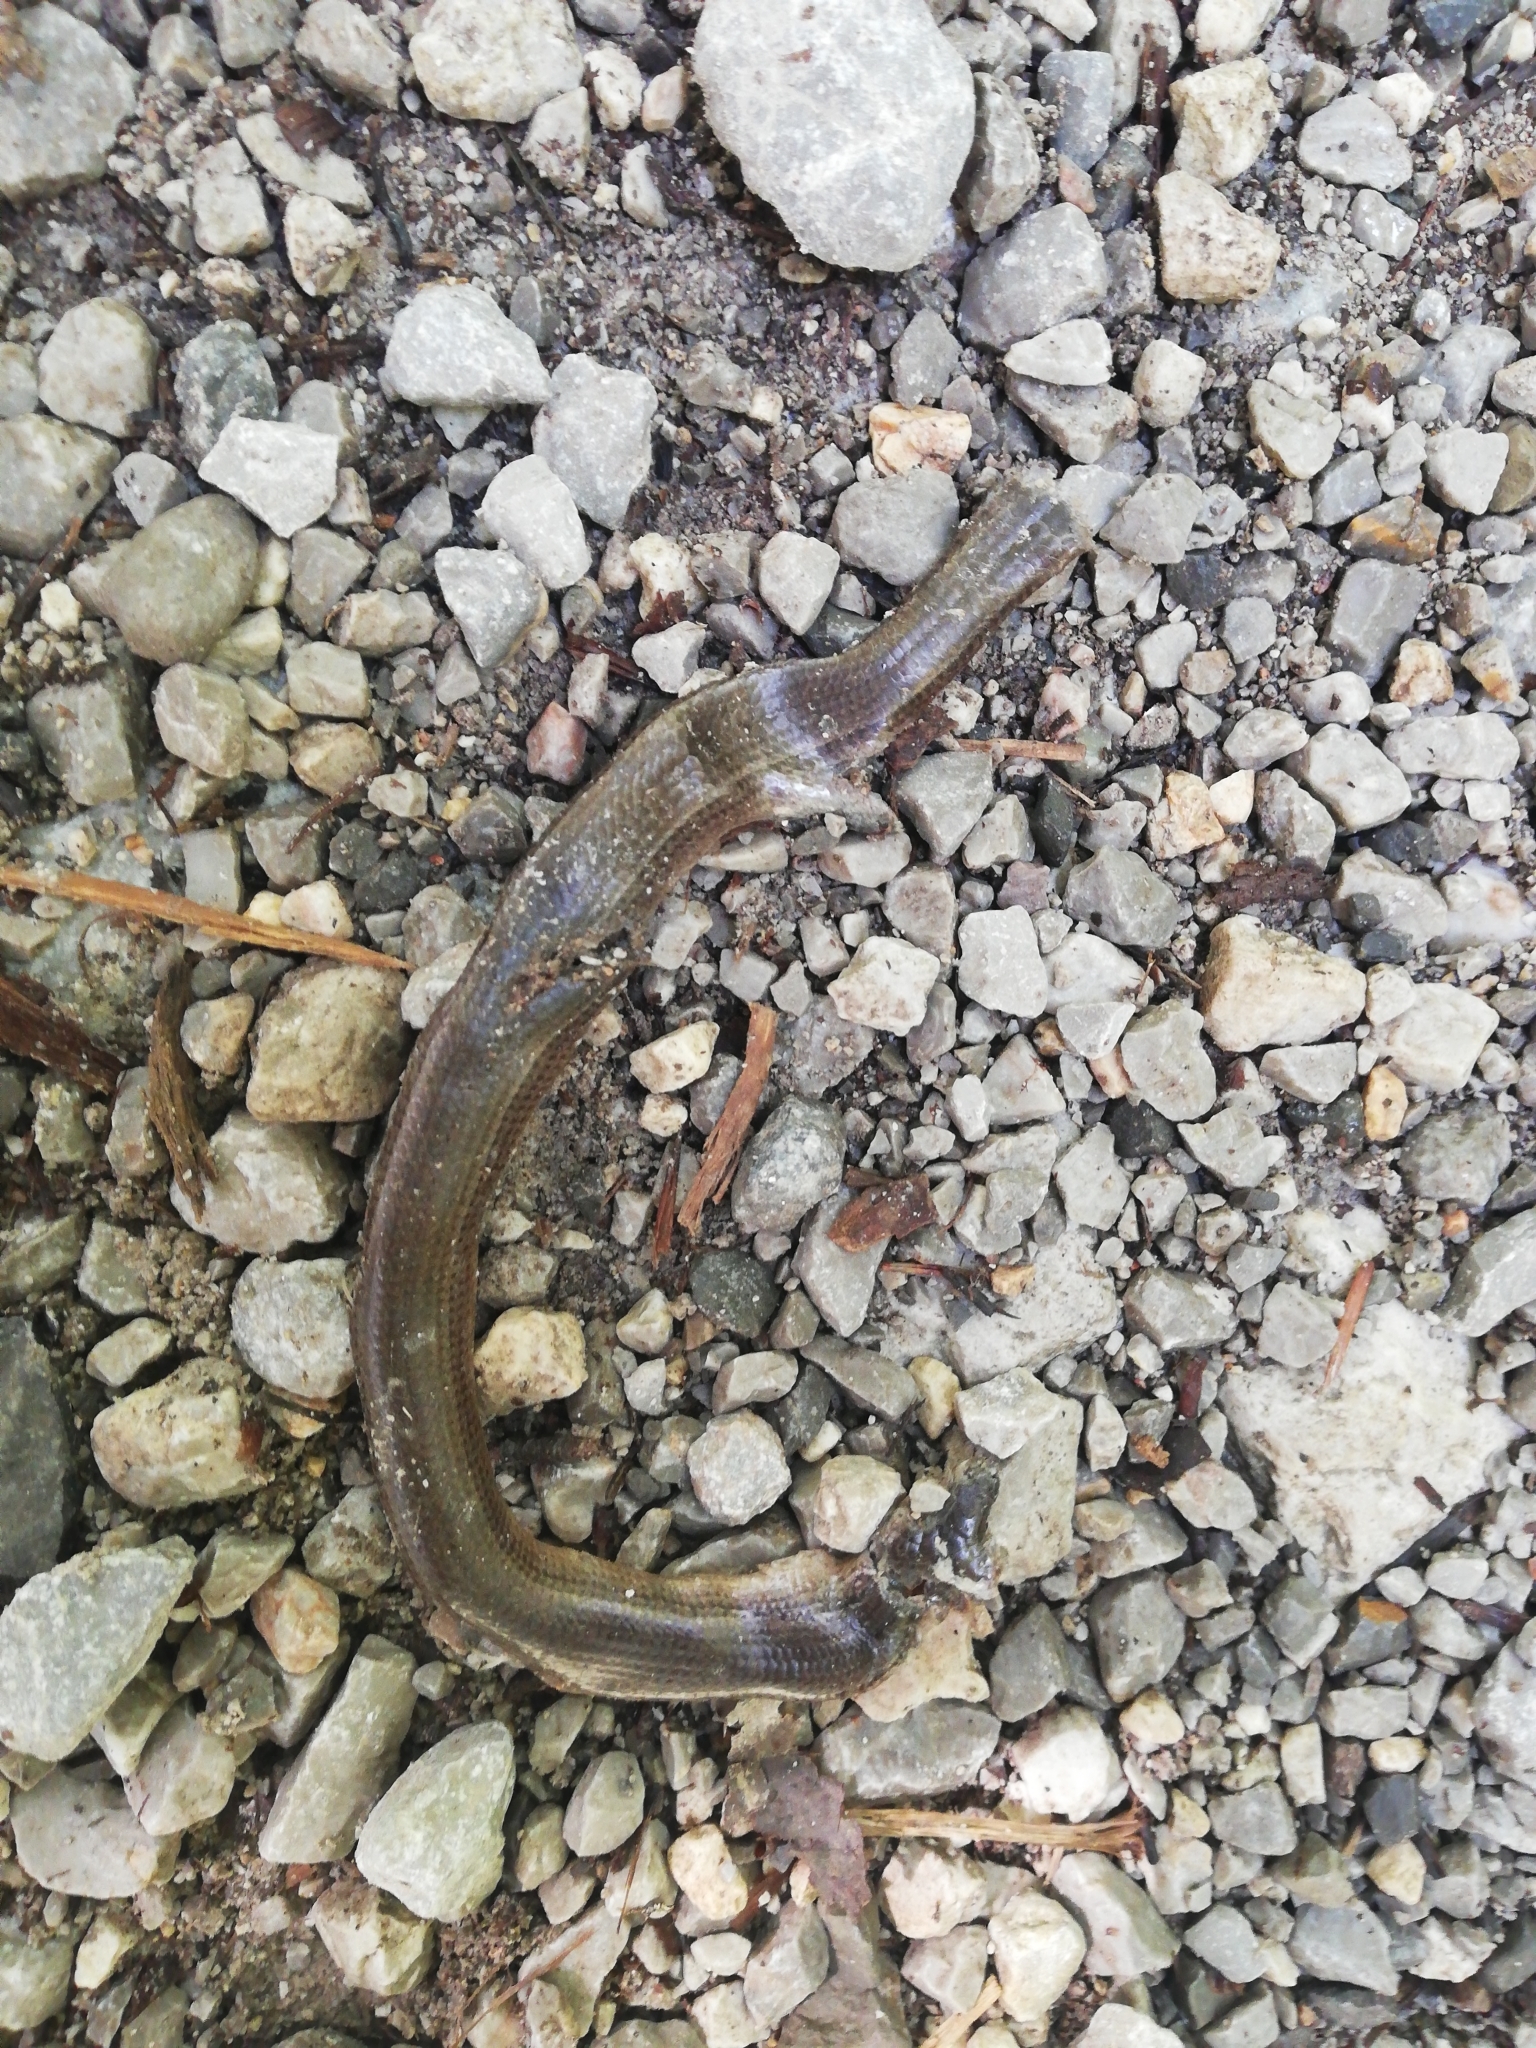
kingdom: Animalia
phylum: Chordata
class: Squamata
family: Anguidae
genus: Anguis
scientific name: Anguis veronensis
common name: Italian slow worm
